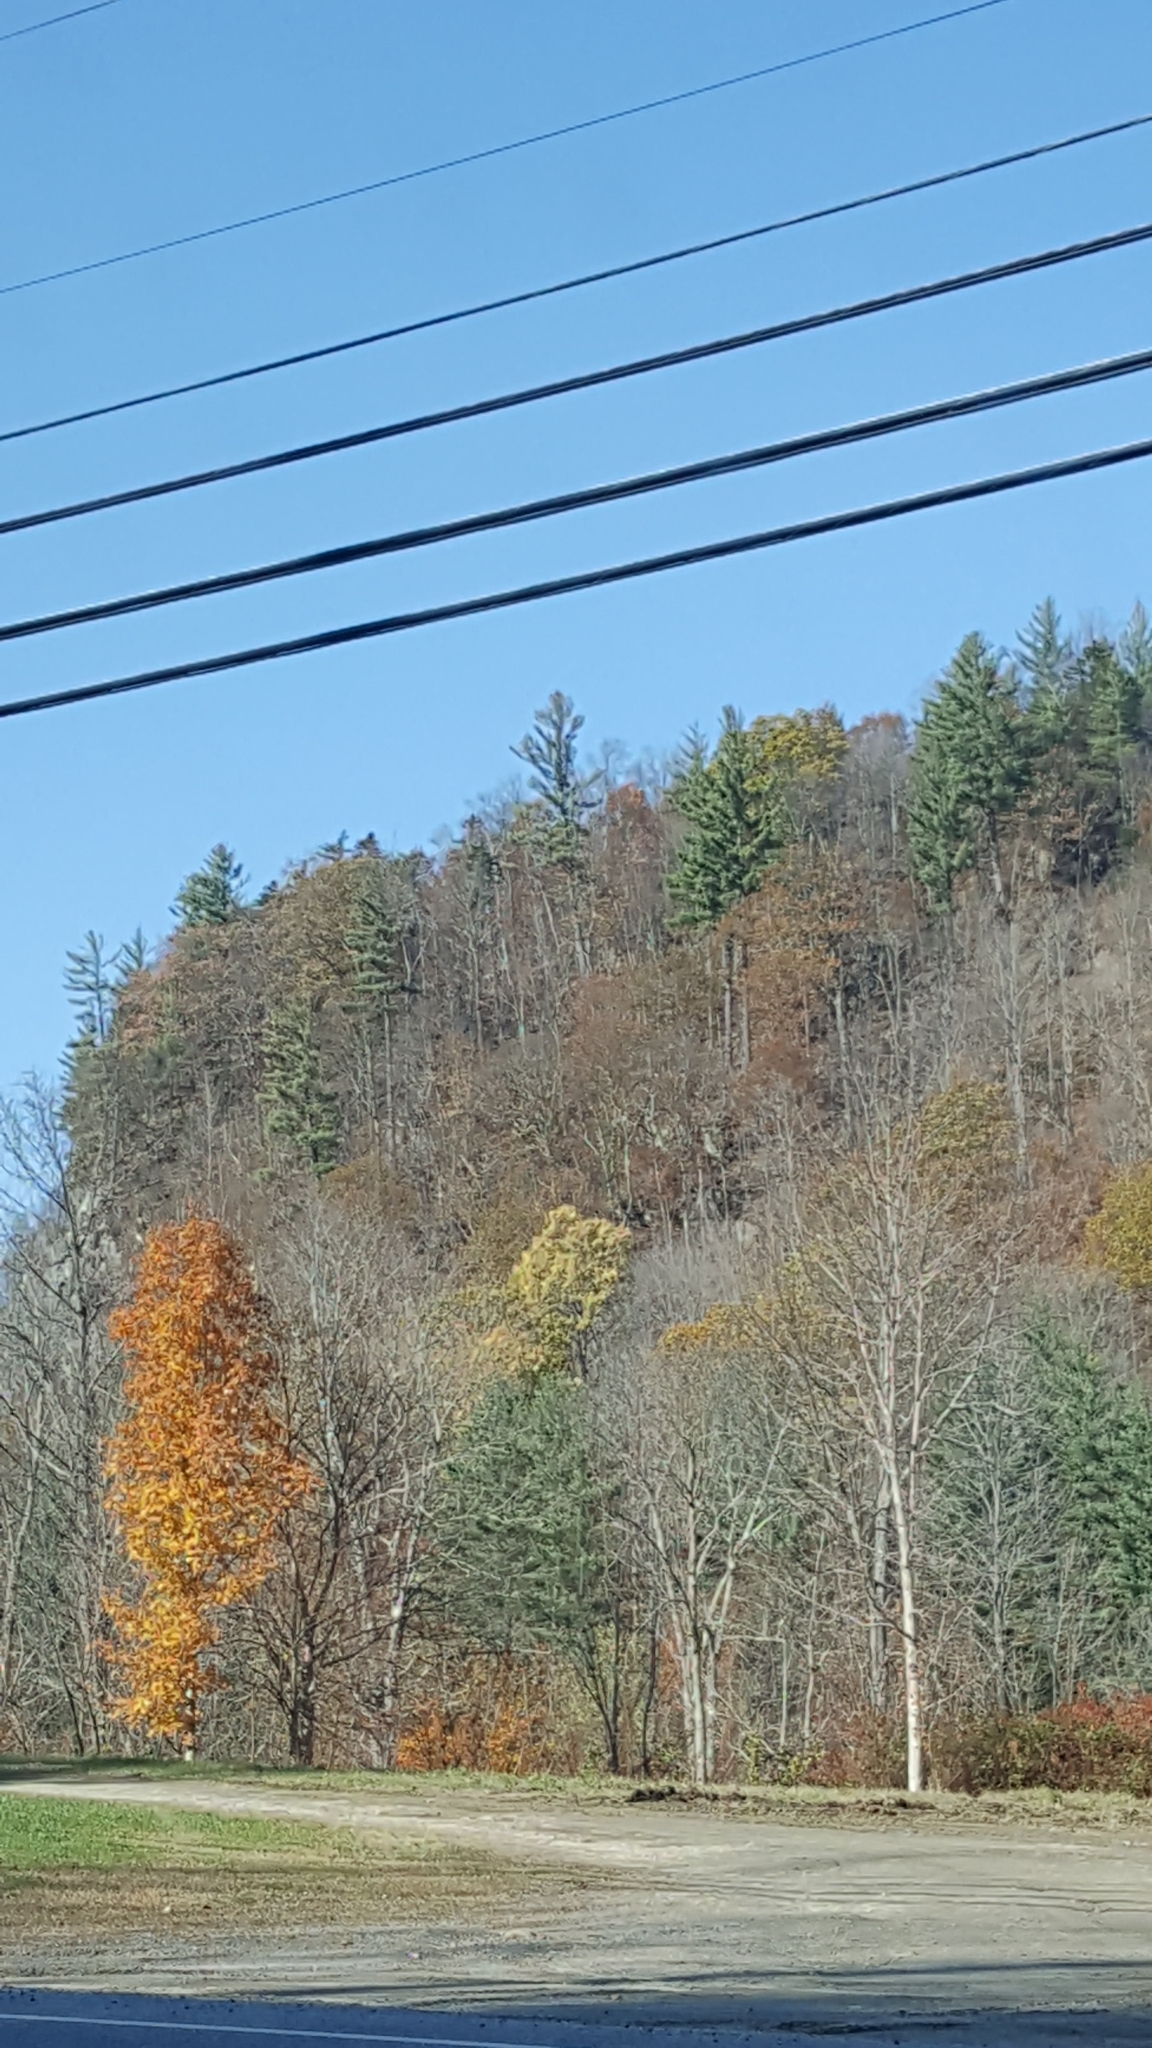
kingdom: Plantae
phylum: Tracheophyta
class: Magnoliopsida
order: Fagales
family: Fagaceae
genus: Quercus
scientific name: Quercus rubra
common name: Red oak
